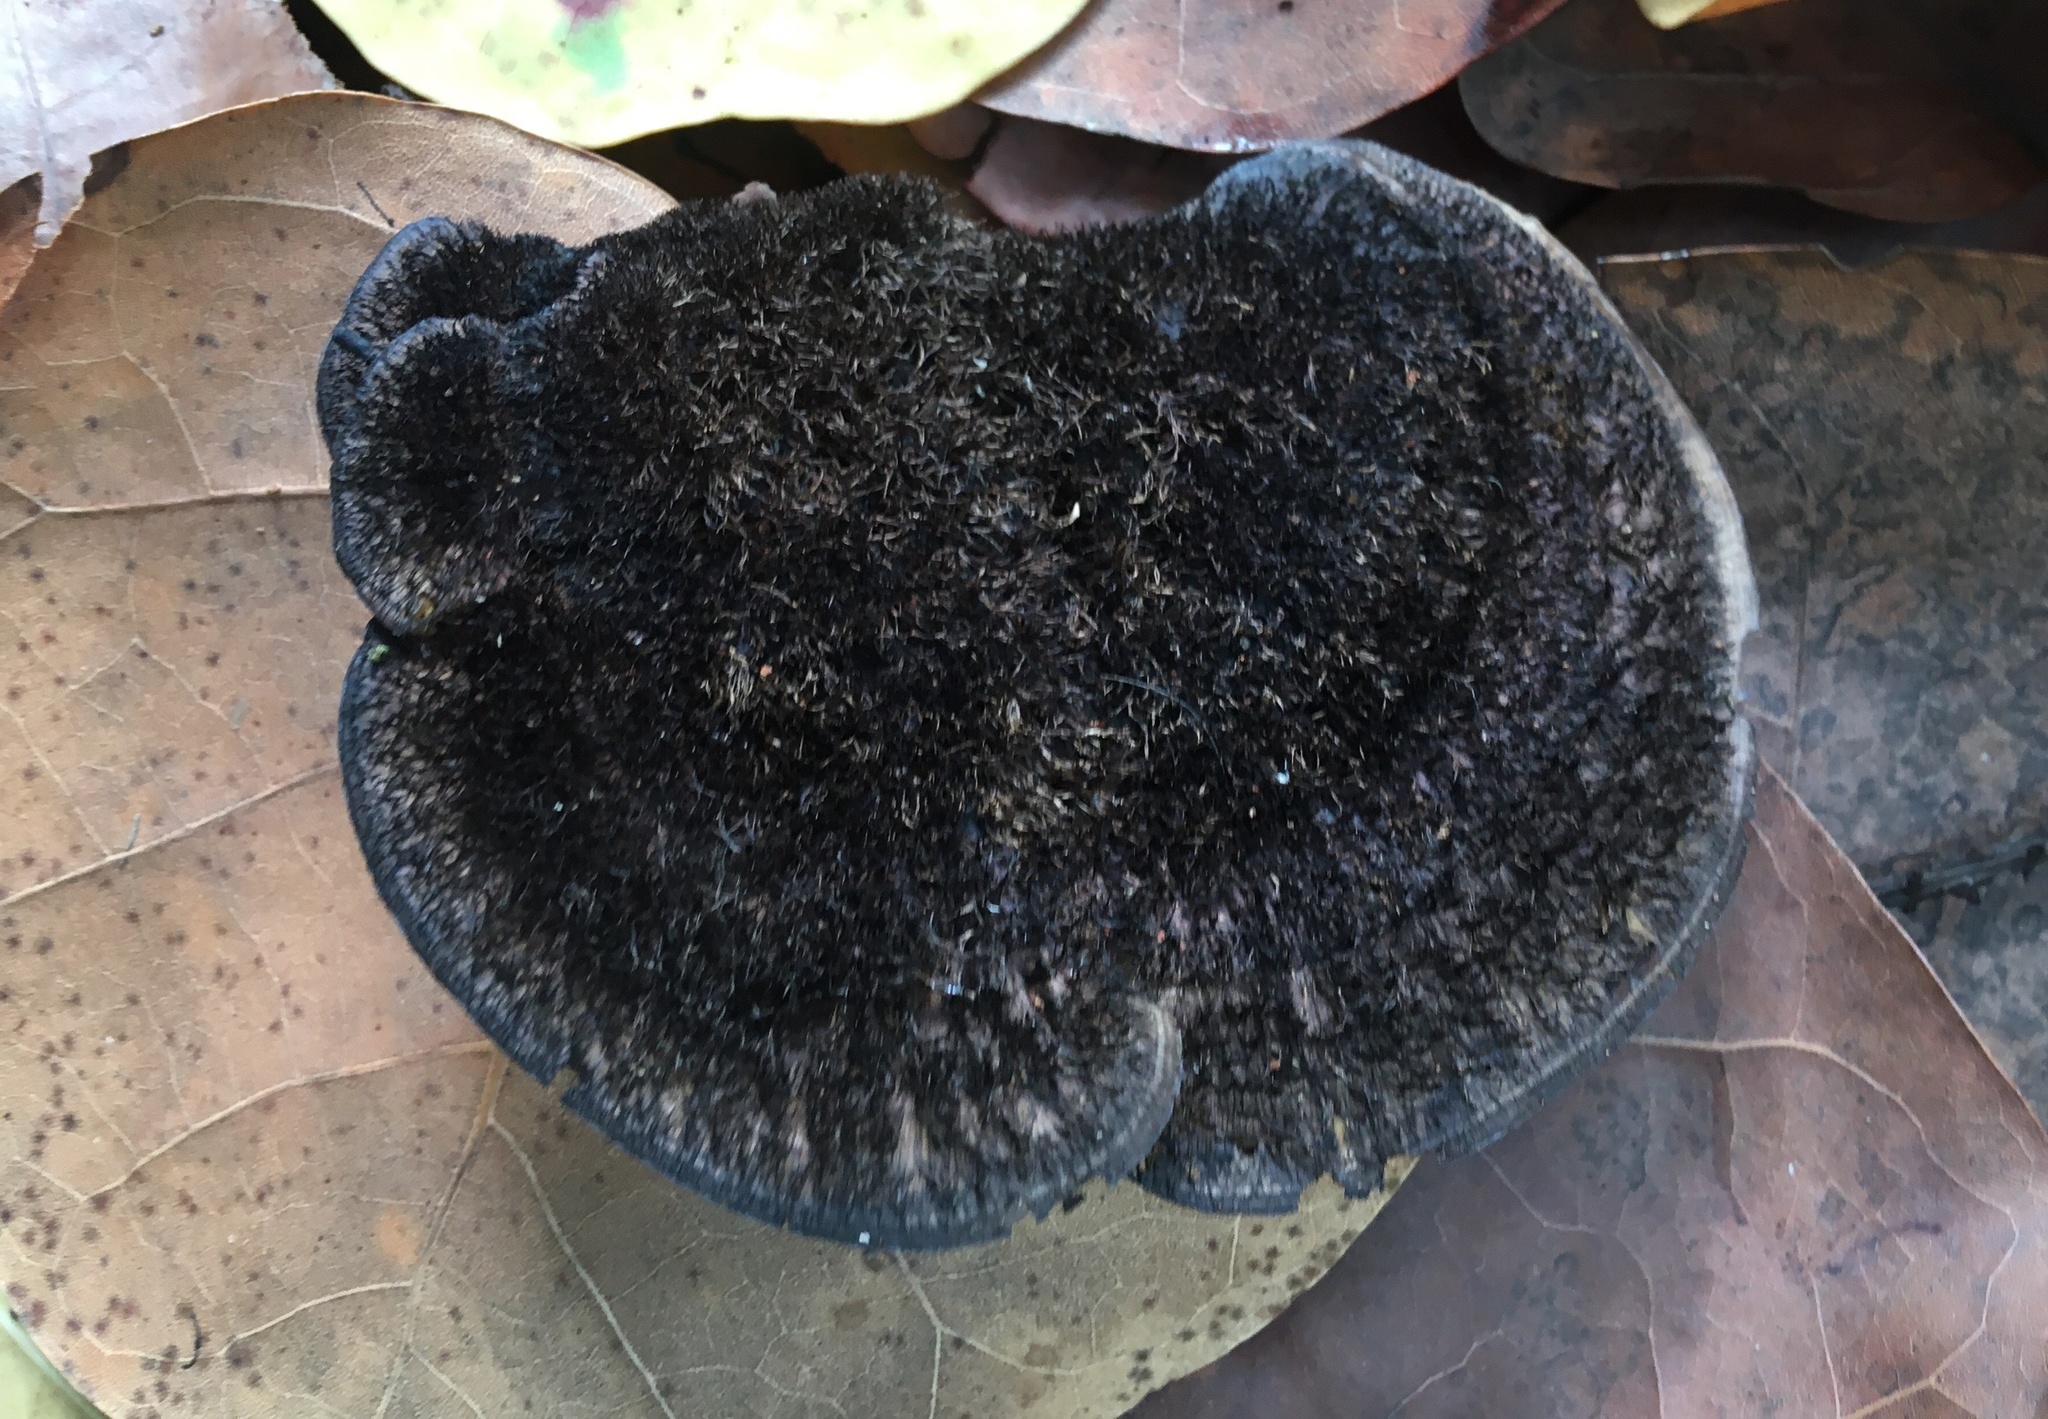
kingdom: Fungi
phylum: Basidiomycota
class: Agaricomycetes
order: Polyporales
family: Cerrenaceae
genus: Cerrena
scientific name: Cerrena hydnoides
